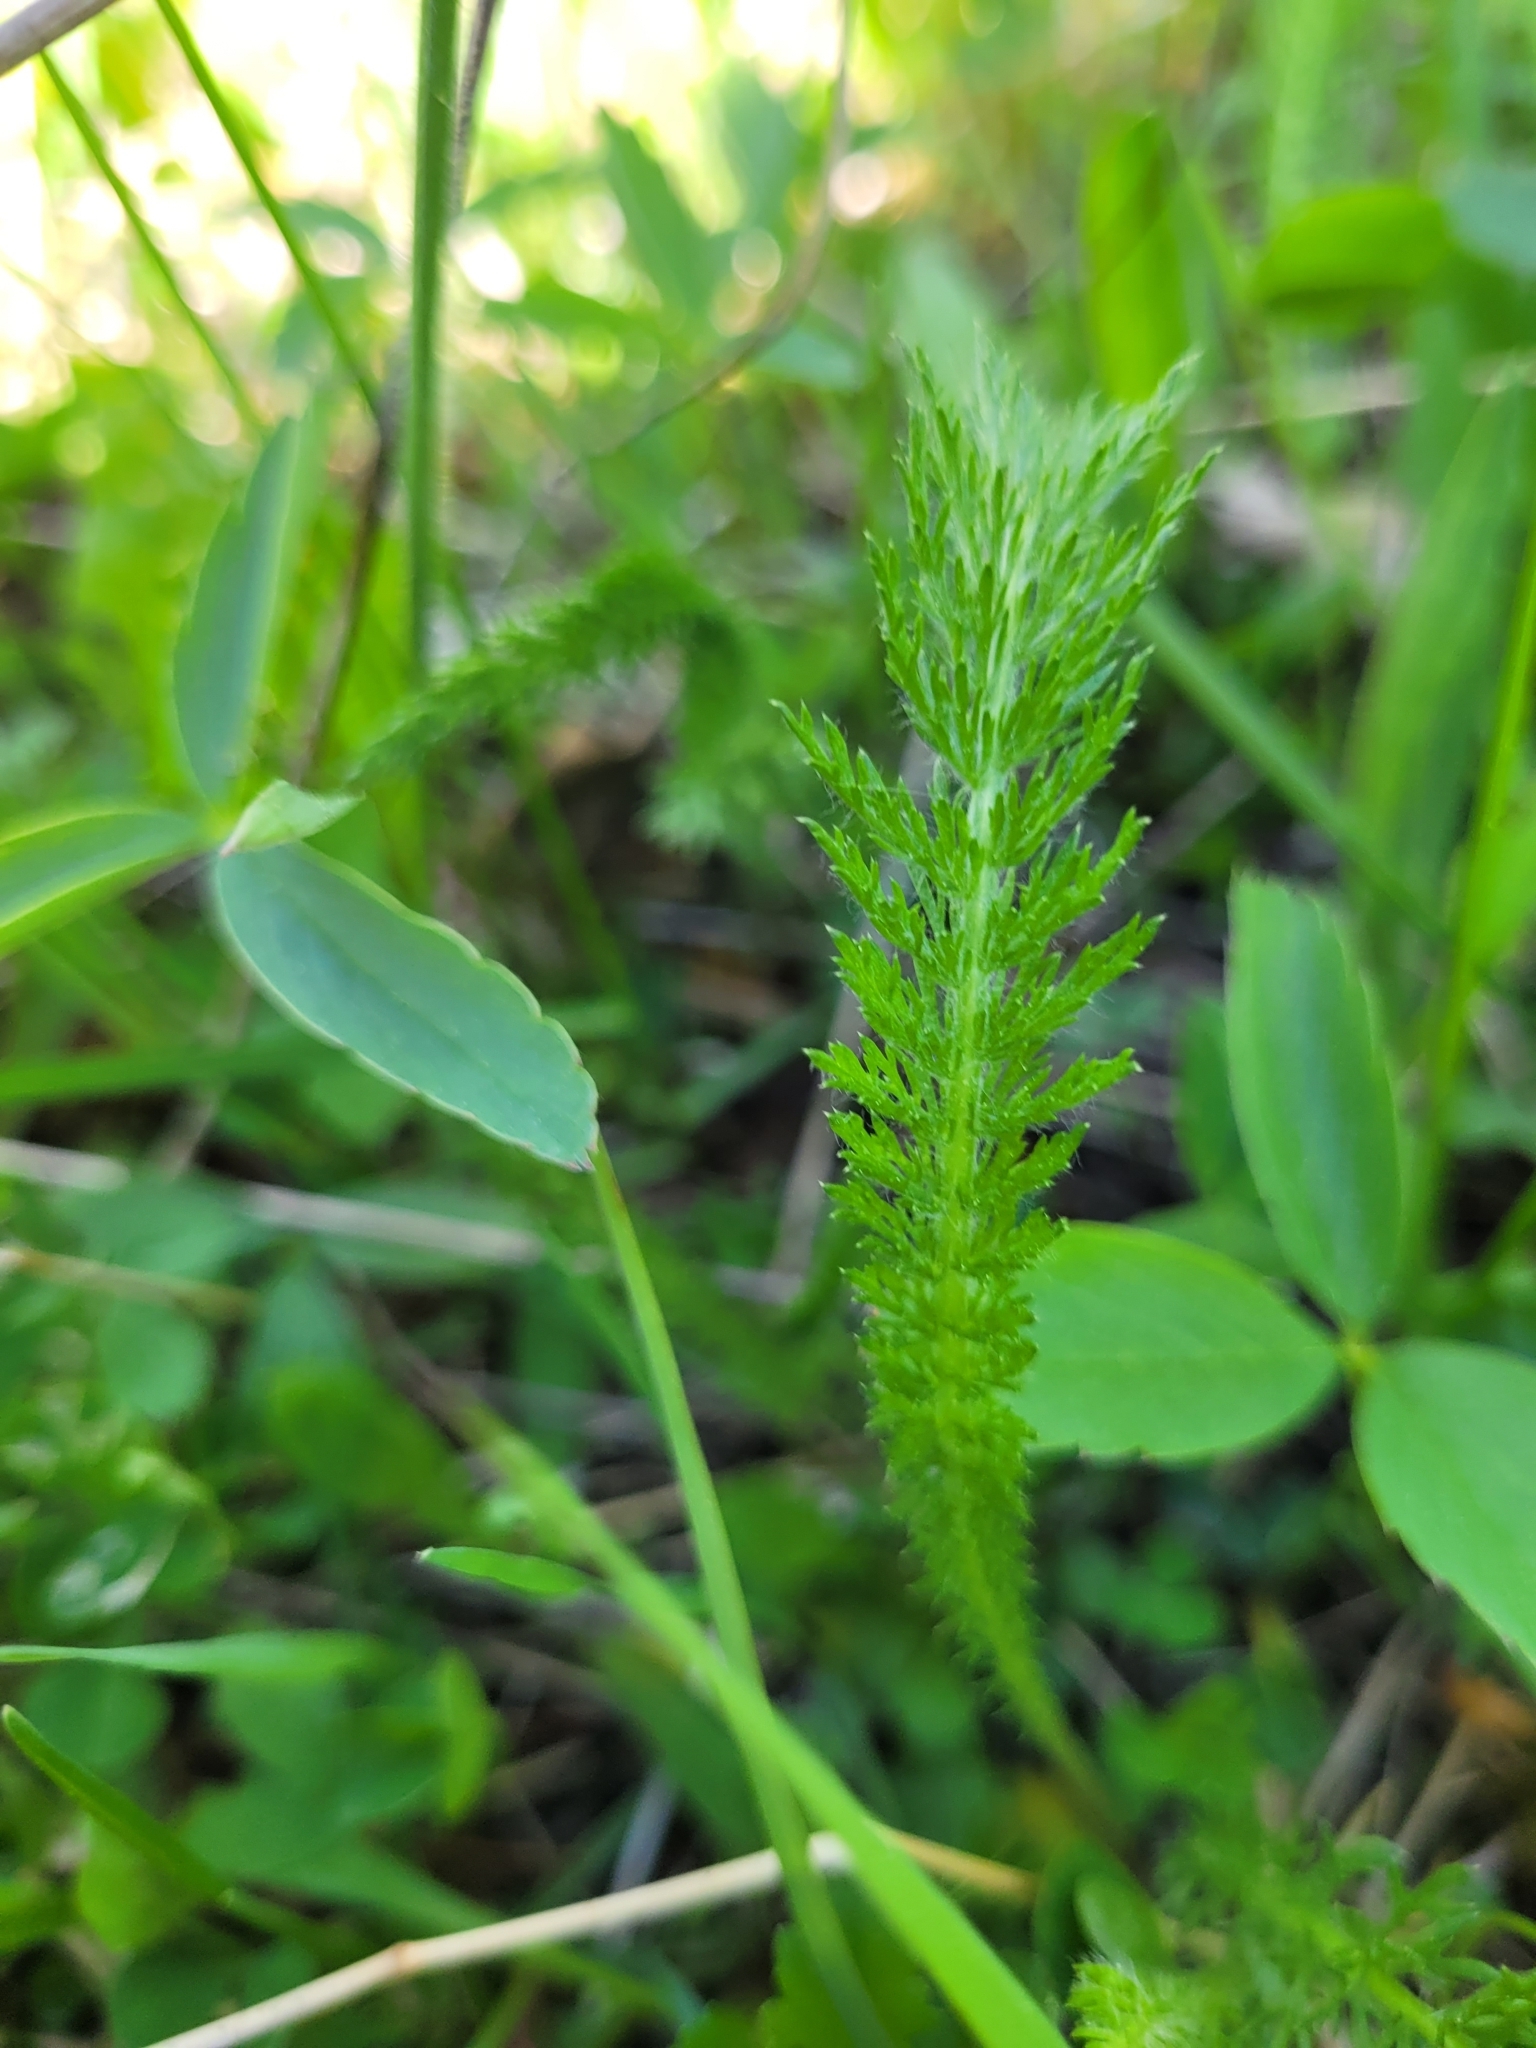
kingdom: Plantae
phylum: Tracheophyta
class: Magnoliopsida
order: Asterales
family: Asteraceae
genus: Achillea
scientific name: Achillea millefolium
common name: Yarrow
